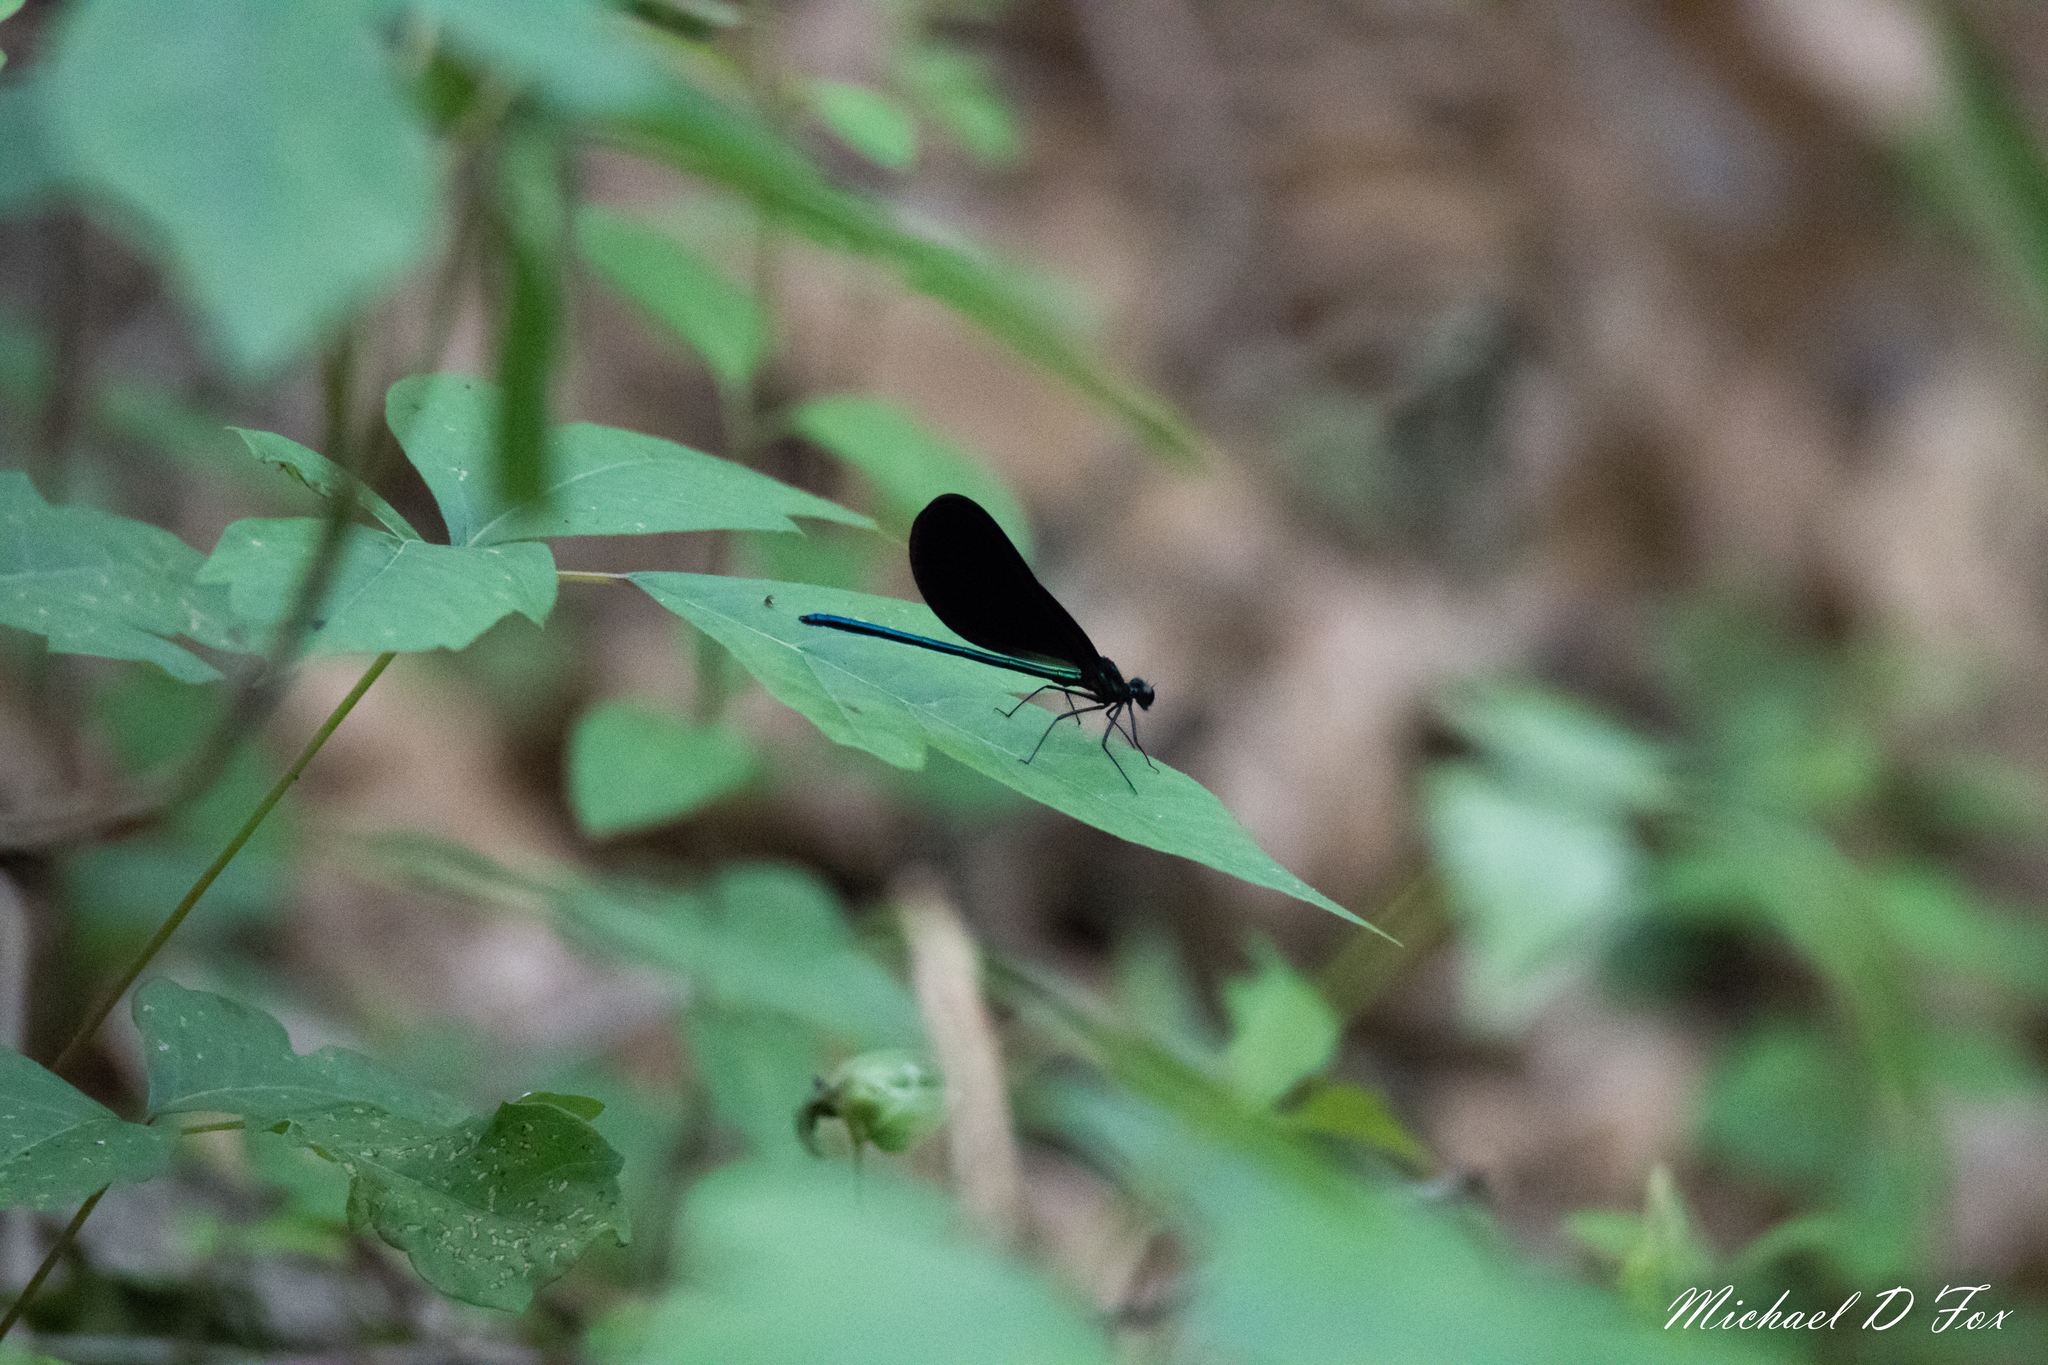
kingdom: Animalia
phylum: Arthropoda
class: Insecta
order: Odonata
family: Calopterygidae
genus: Calopteryx
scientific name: Calopteryx maculata
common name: Ebony jewelwing
